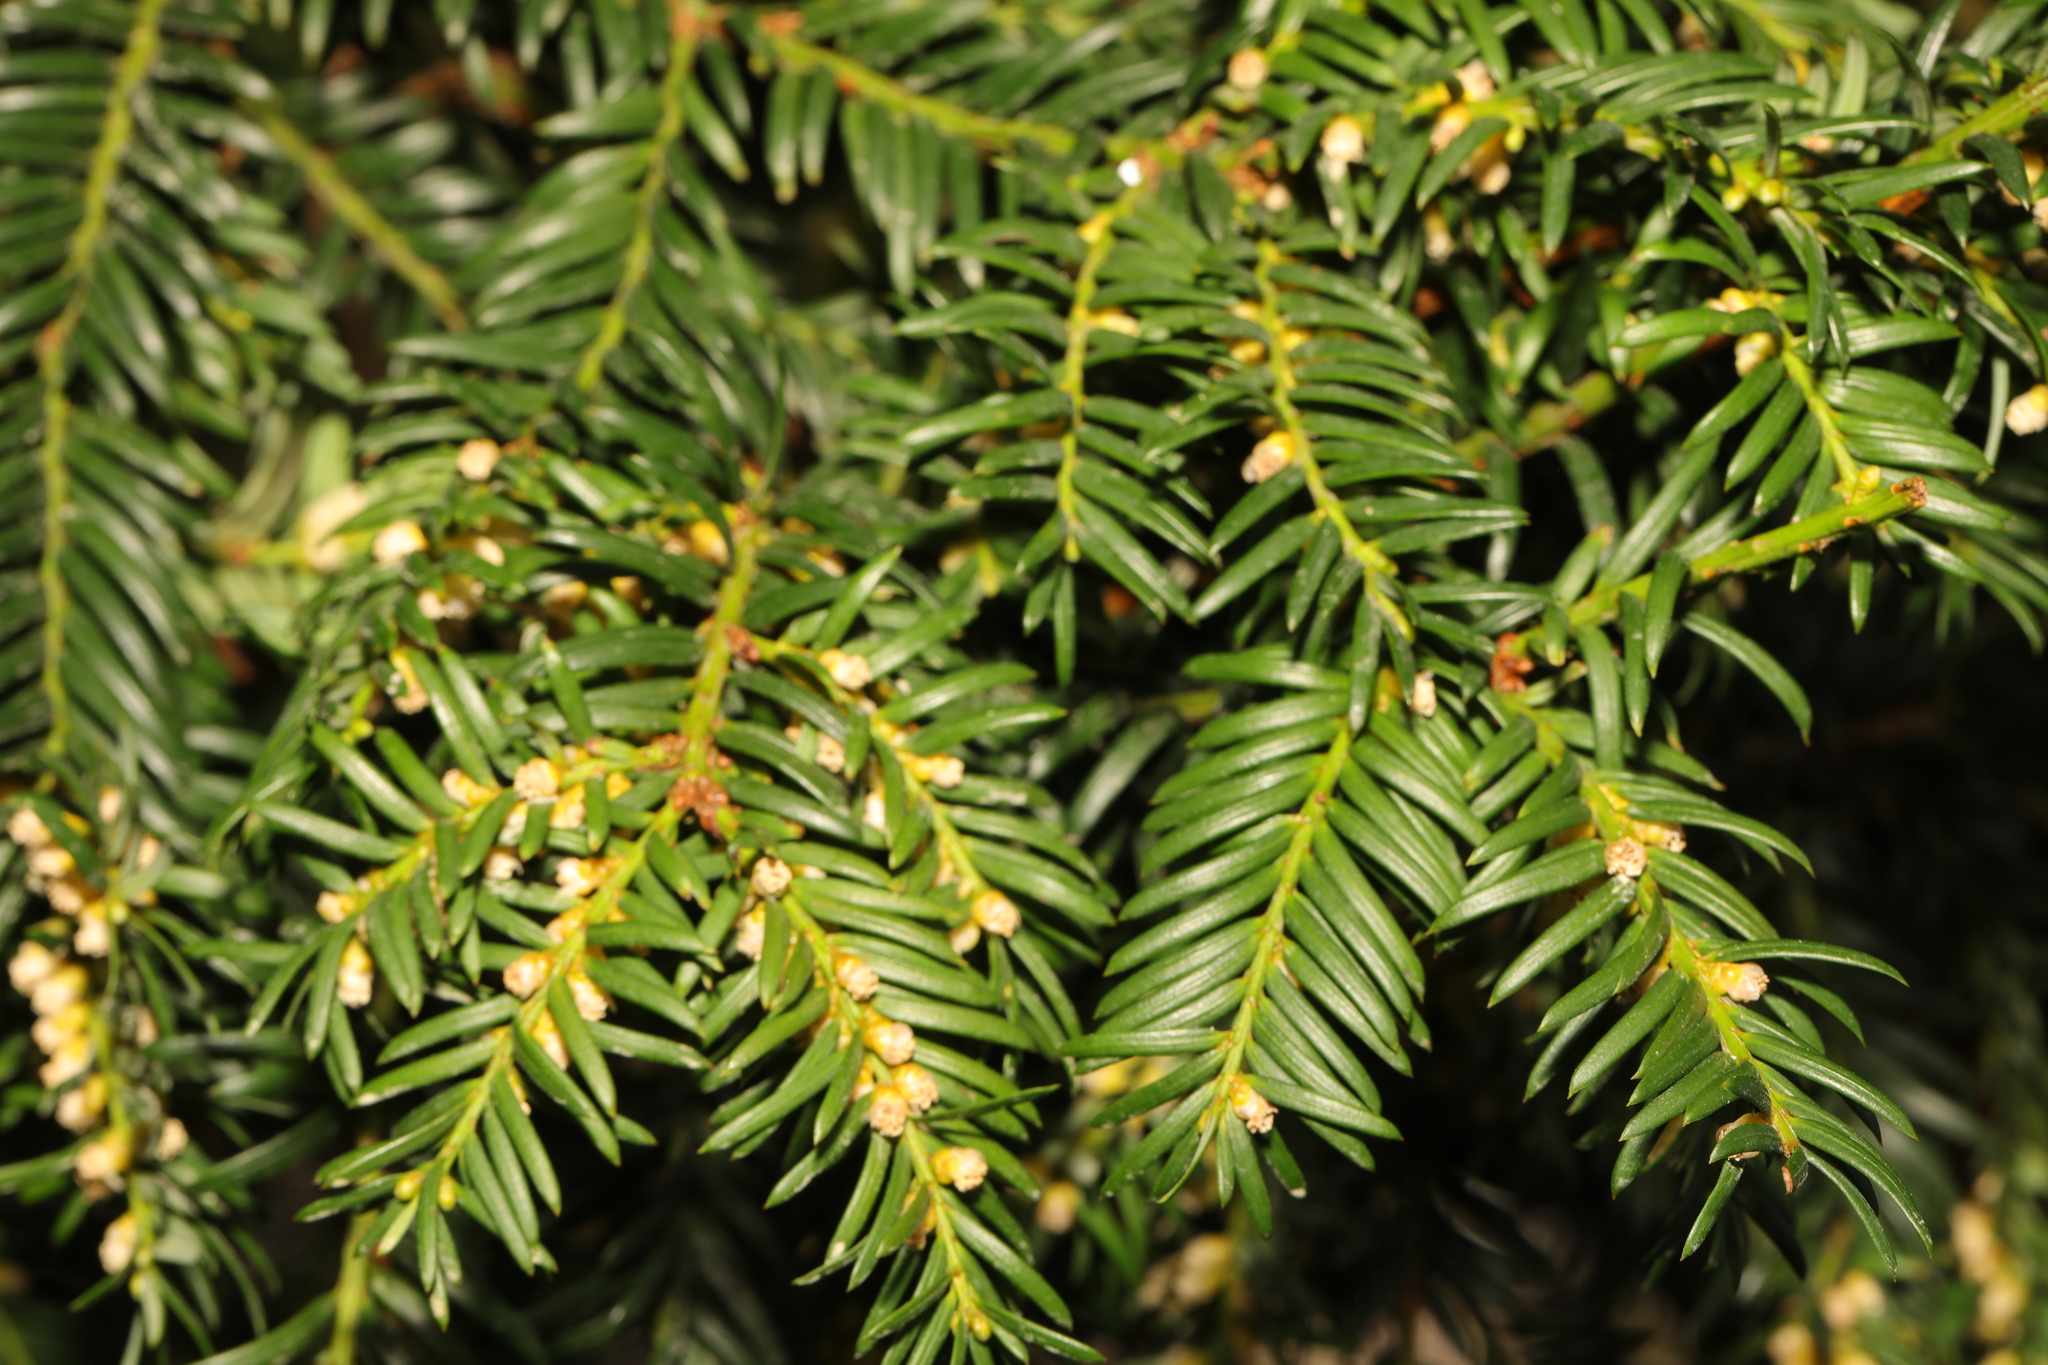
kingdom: Plantae
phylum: Tracheophyta
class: Pinopsida
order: Pinales
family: Taxaceae
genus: Taxus
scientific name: Taxus baccata
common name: Yew
